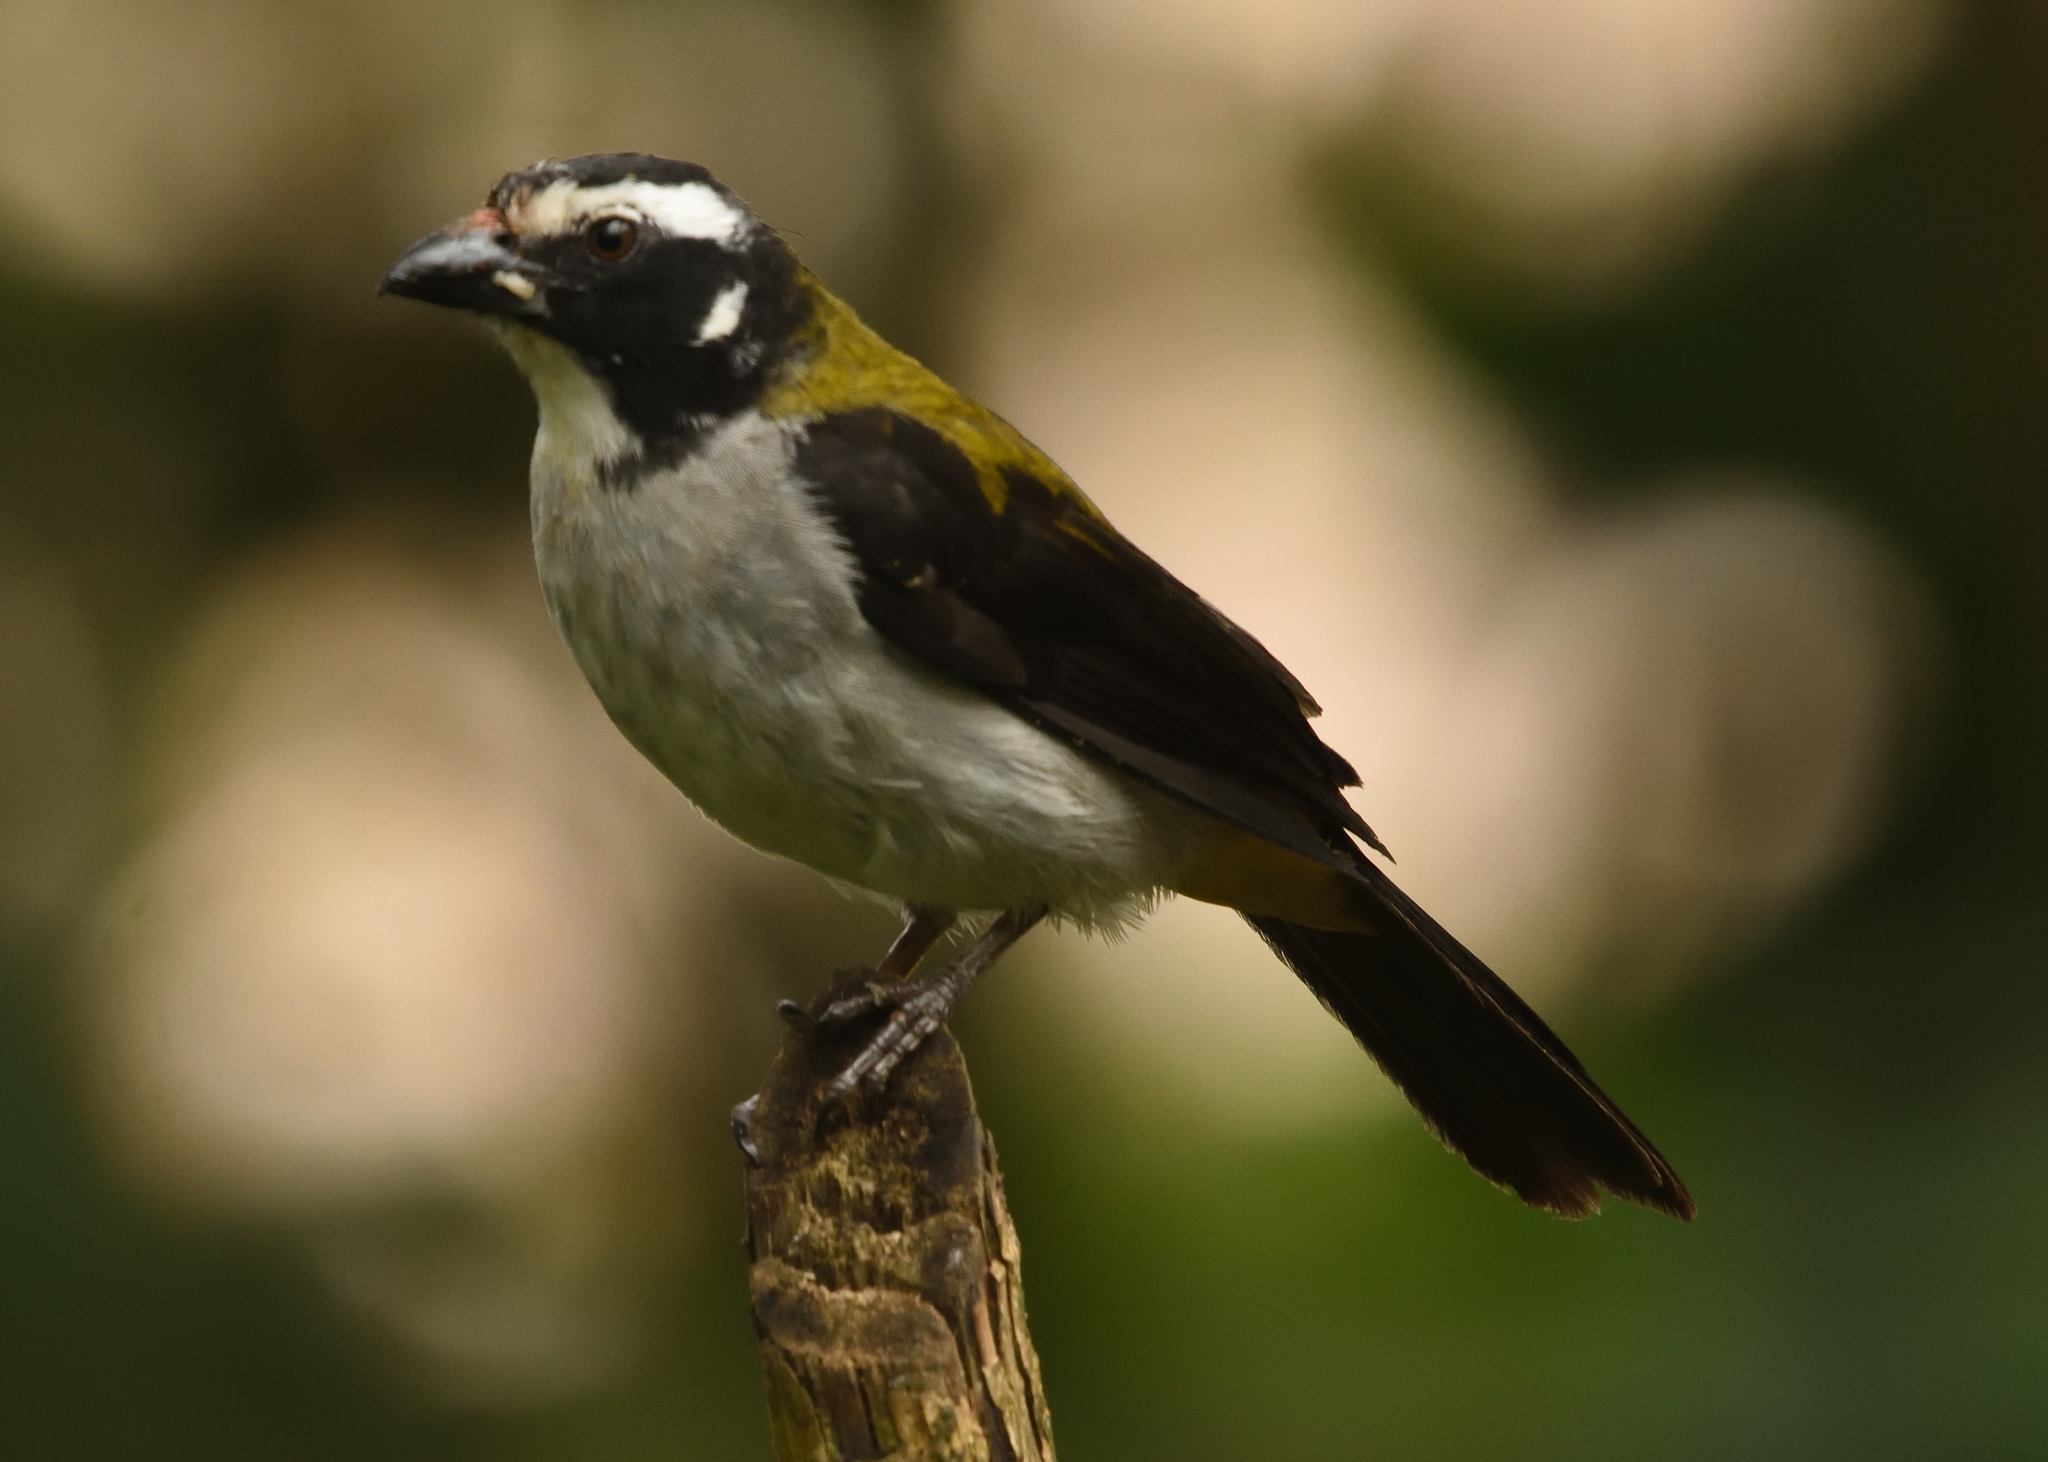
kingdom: Animalia
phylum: Chordata
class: Aves
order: Passeriformes
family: Thraupidae
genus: Saltator
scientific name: Saltator atripennis
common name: Black-winged saltator
